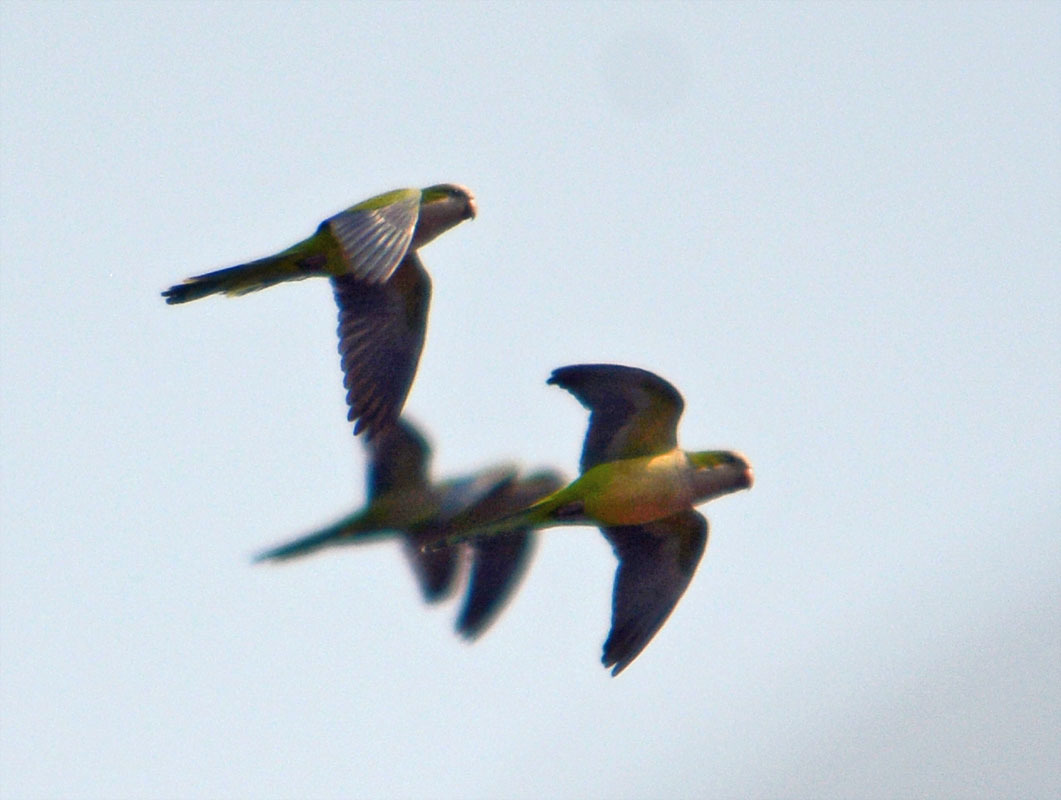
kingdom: Animalia
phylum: Chordata
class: Aves
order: Psittaciformes
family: Psittacidae
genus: Myiopsitta
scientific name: Myiopsitta monachus
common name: Monk parakeet
